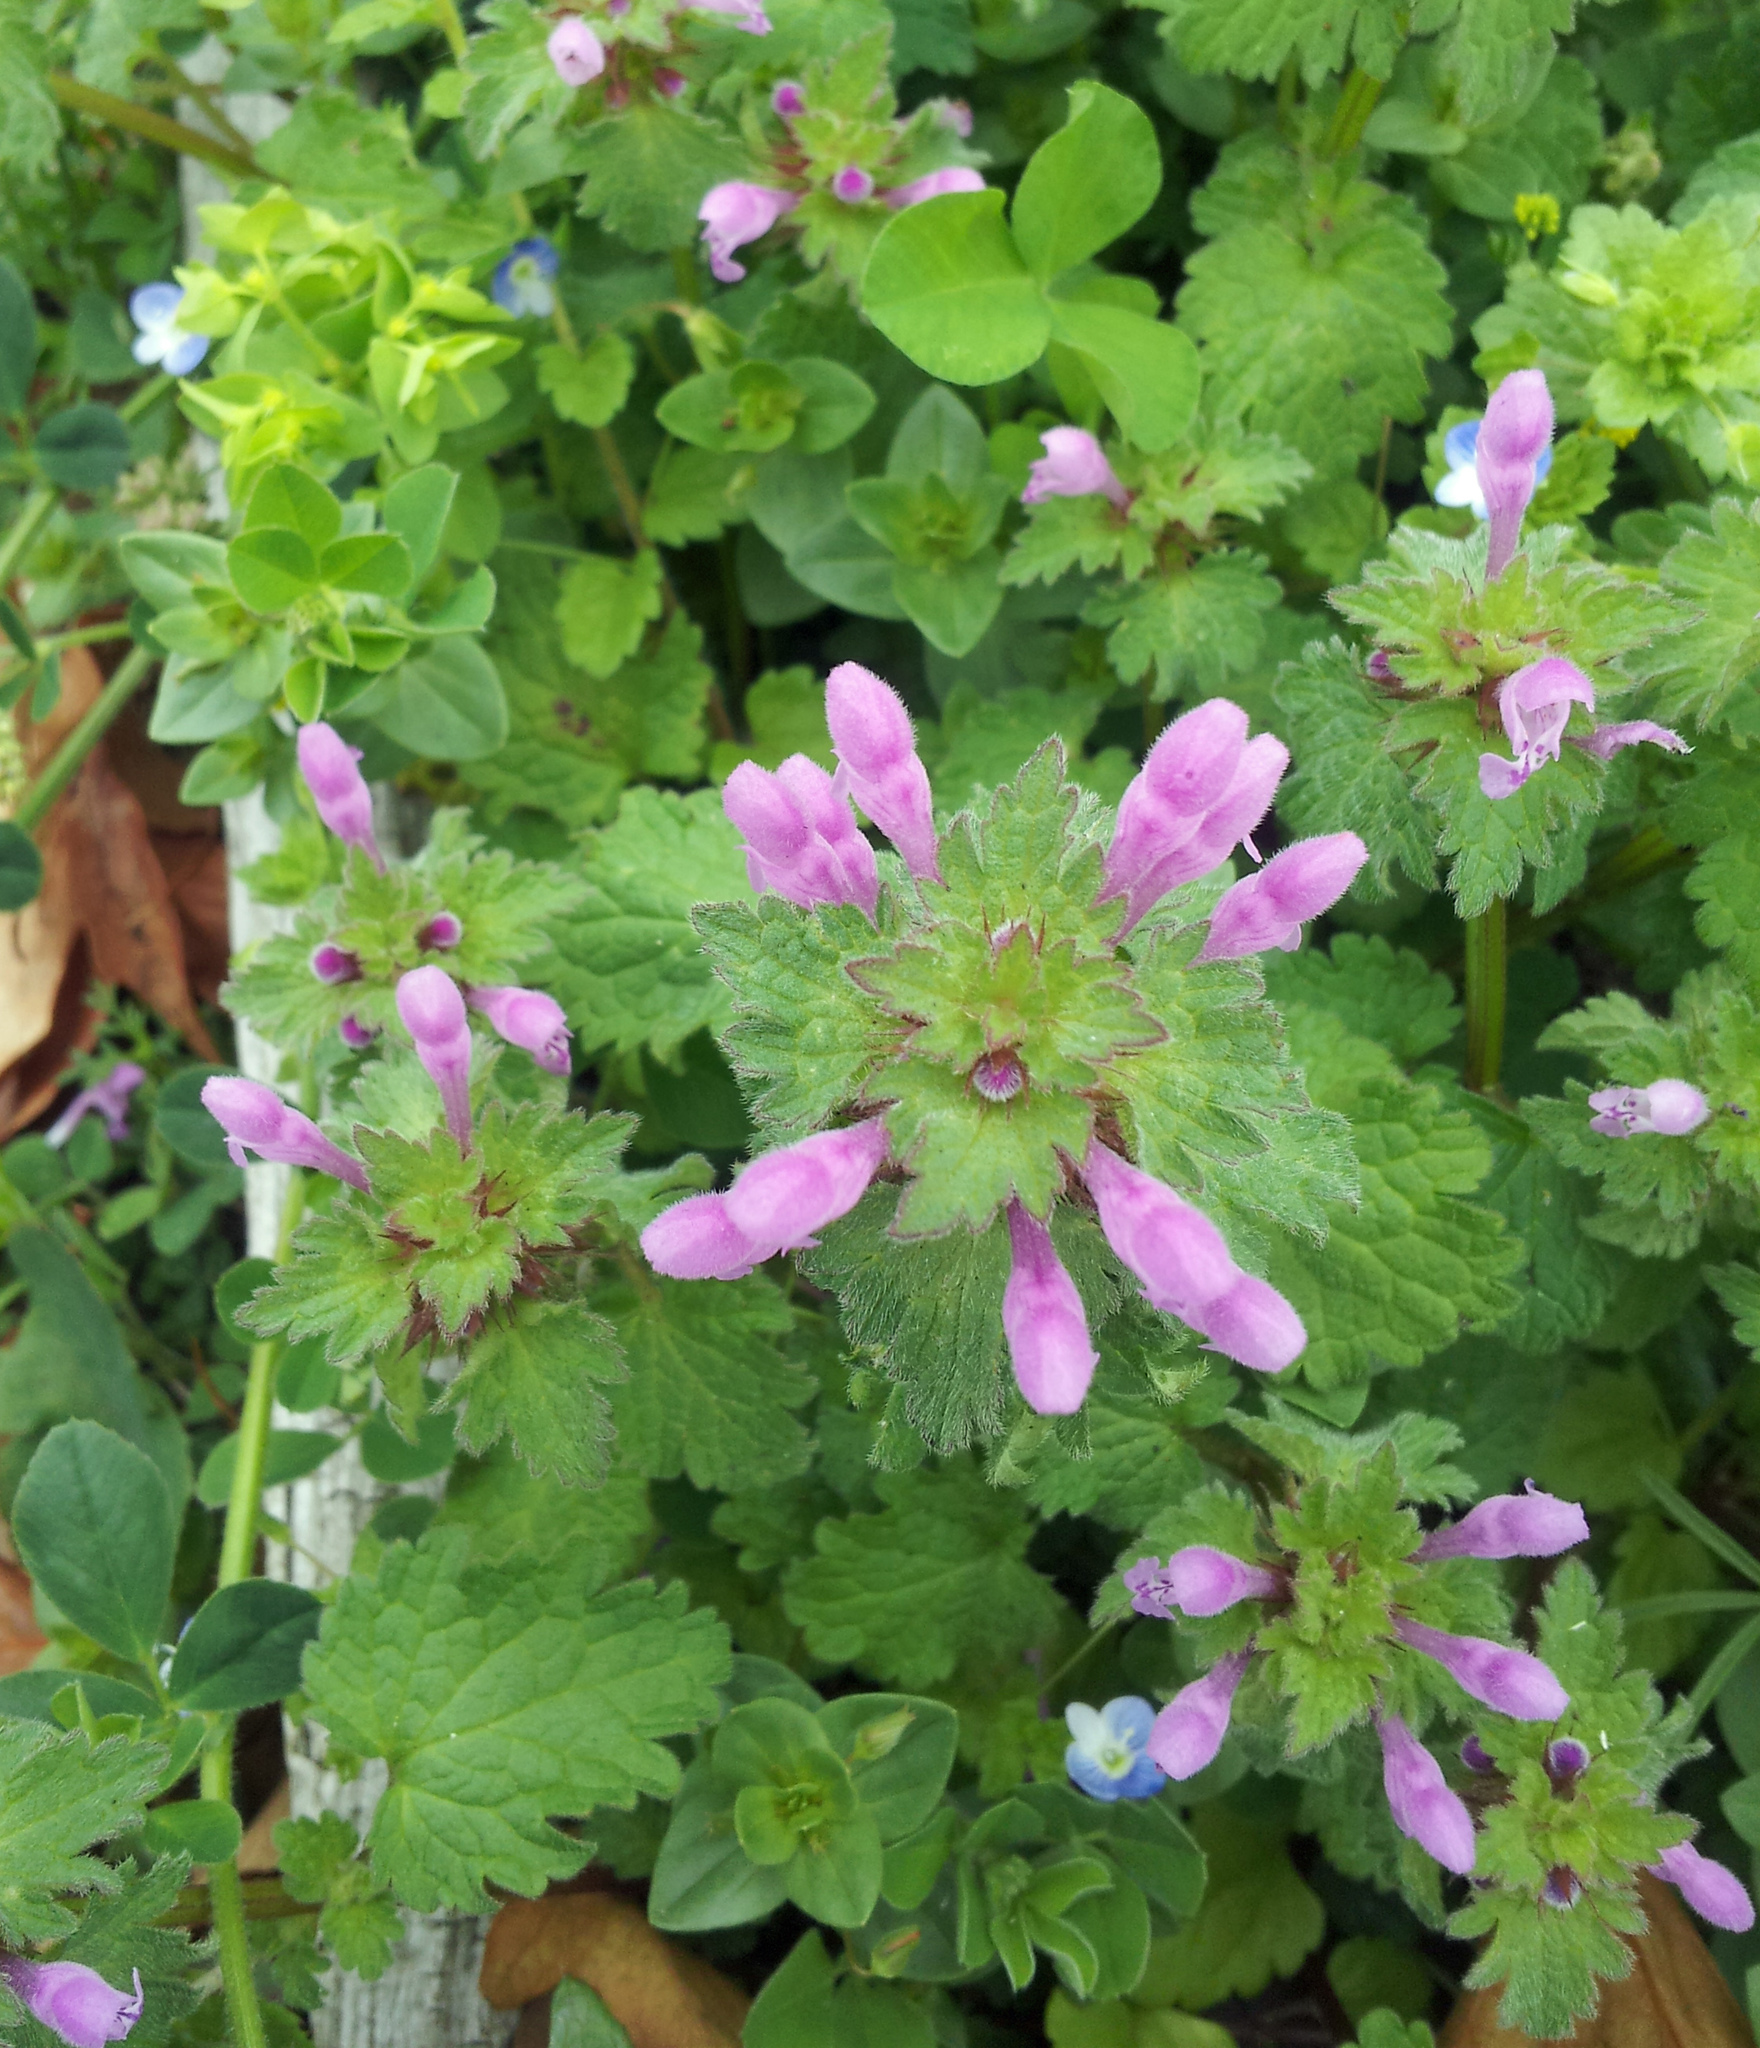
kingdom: Plantae
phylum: Tracheophyta
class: Magnoliopsida
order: Lamiales
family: Lamiaceae
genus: Lamium
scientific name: Lamium hybridum
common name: Cut-leaved dead-nettle
